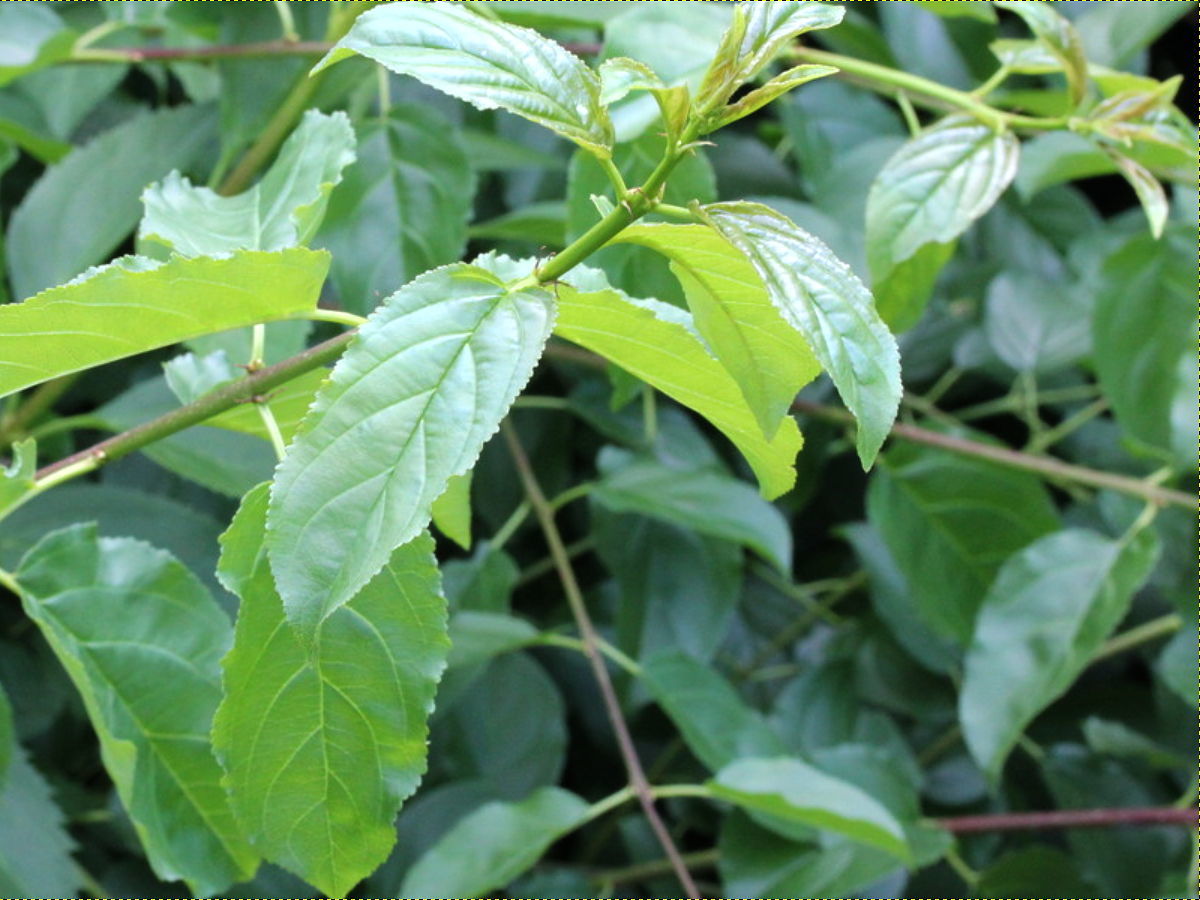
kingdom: Plantae
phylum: Tracheophyta
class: Magnoliopsida
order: Rosales
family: Rhamnaceae
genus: Rhamnus
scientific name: Rhamnus cathartica
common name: Common buckthorn
